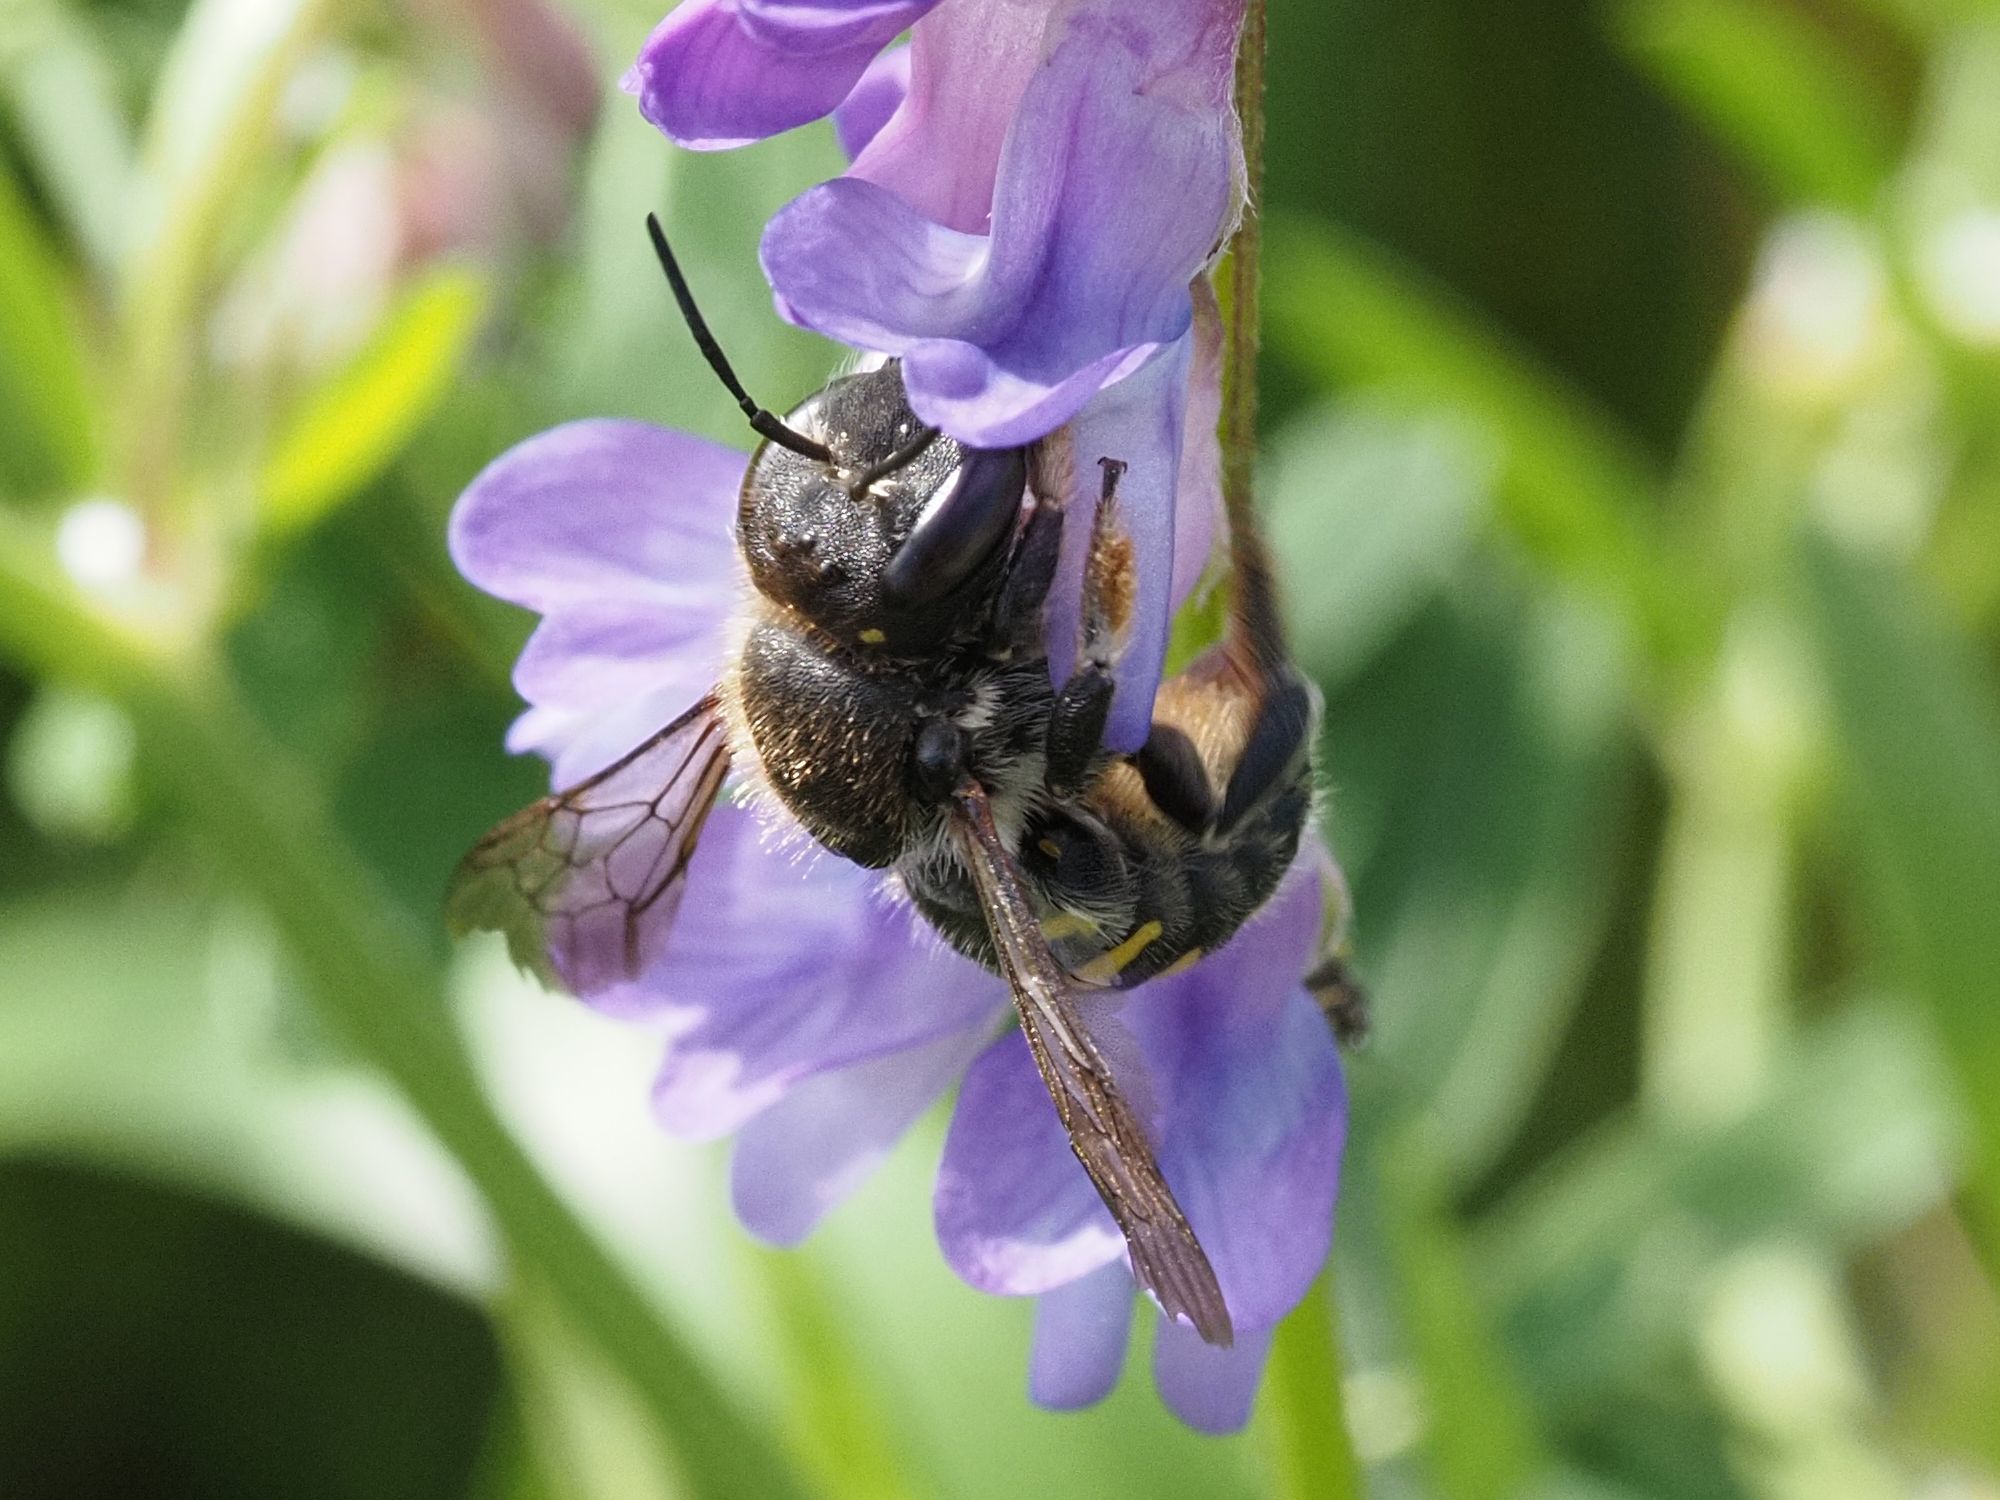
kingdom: Animalia
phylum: Arthropoda
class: Insecta
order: Hymenoptera
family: Megachilidae
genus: Anthidium
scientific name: Anthidium septemspinosum
